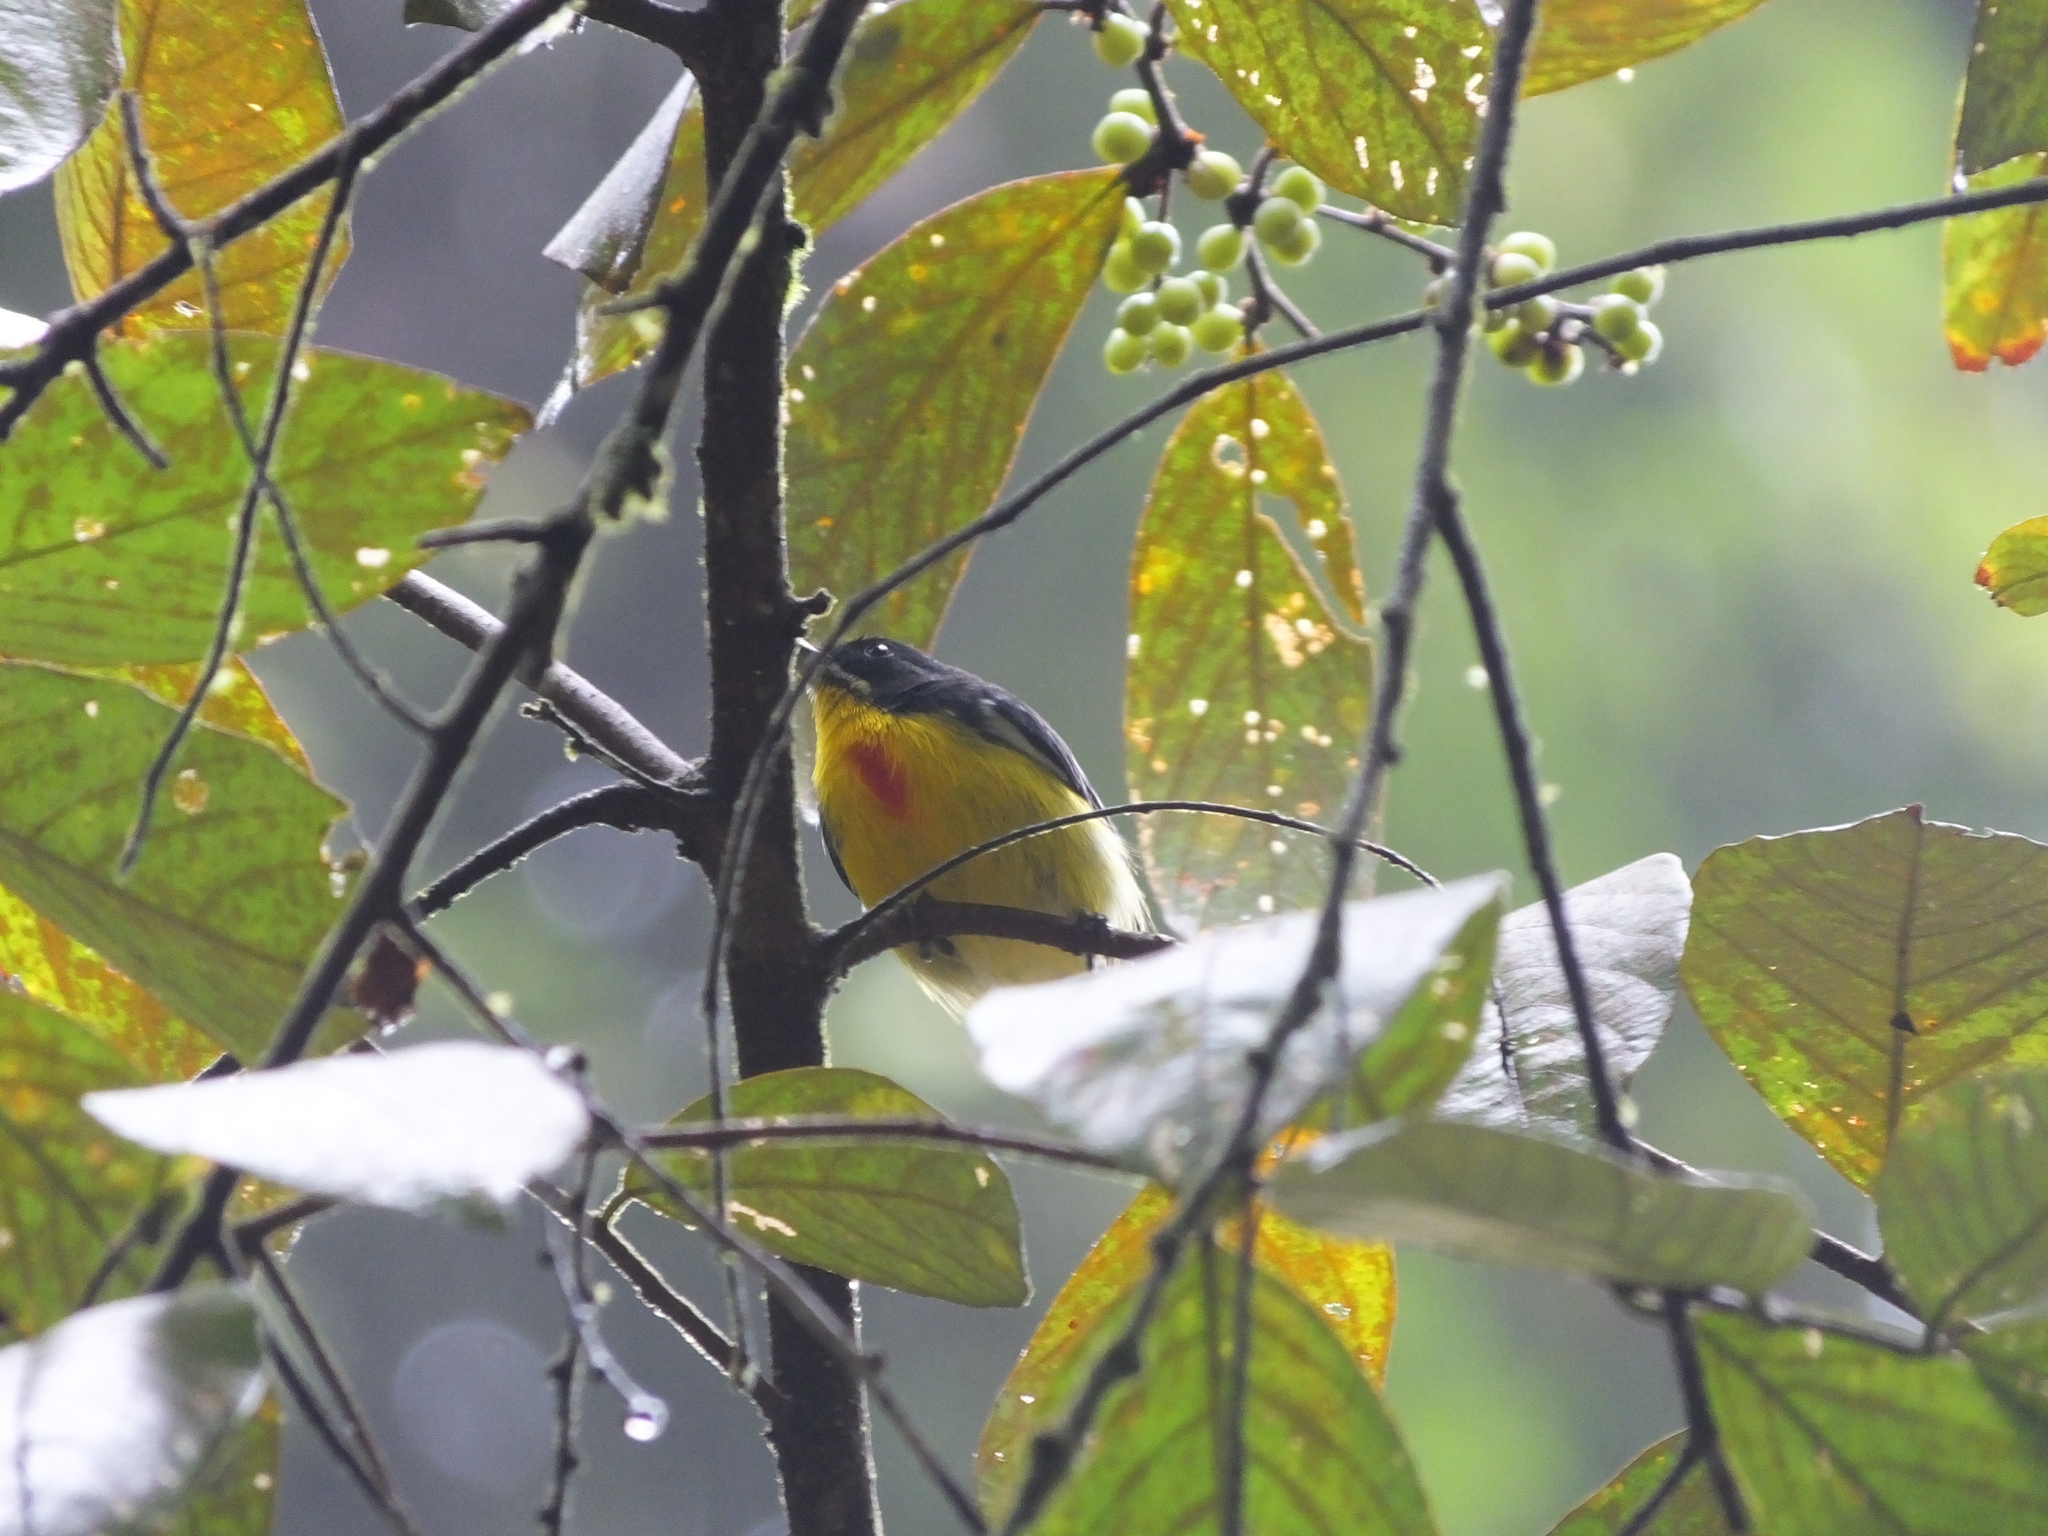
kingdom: Animalia
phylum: Chordata
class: Aves
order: Passeriformes
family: Dicaeidae
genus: Prionochilus
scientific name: Prionochilus percussus
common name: Crimson-breasted flowerpecker
